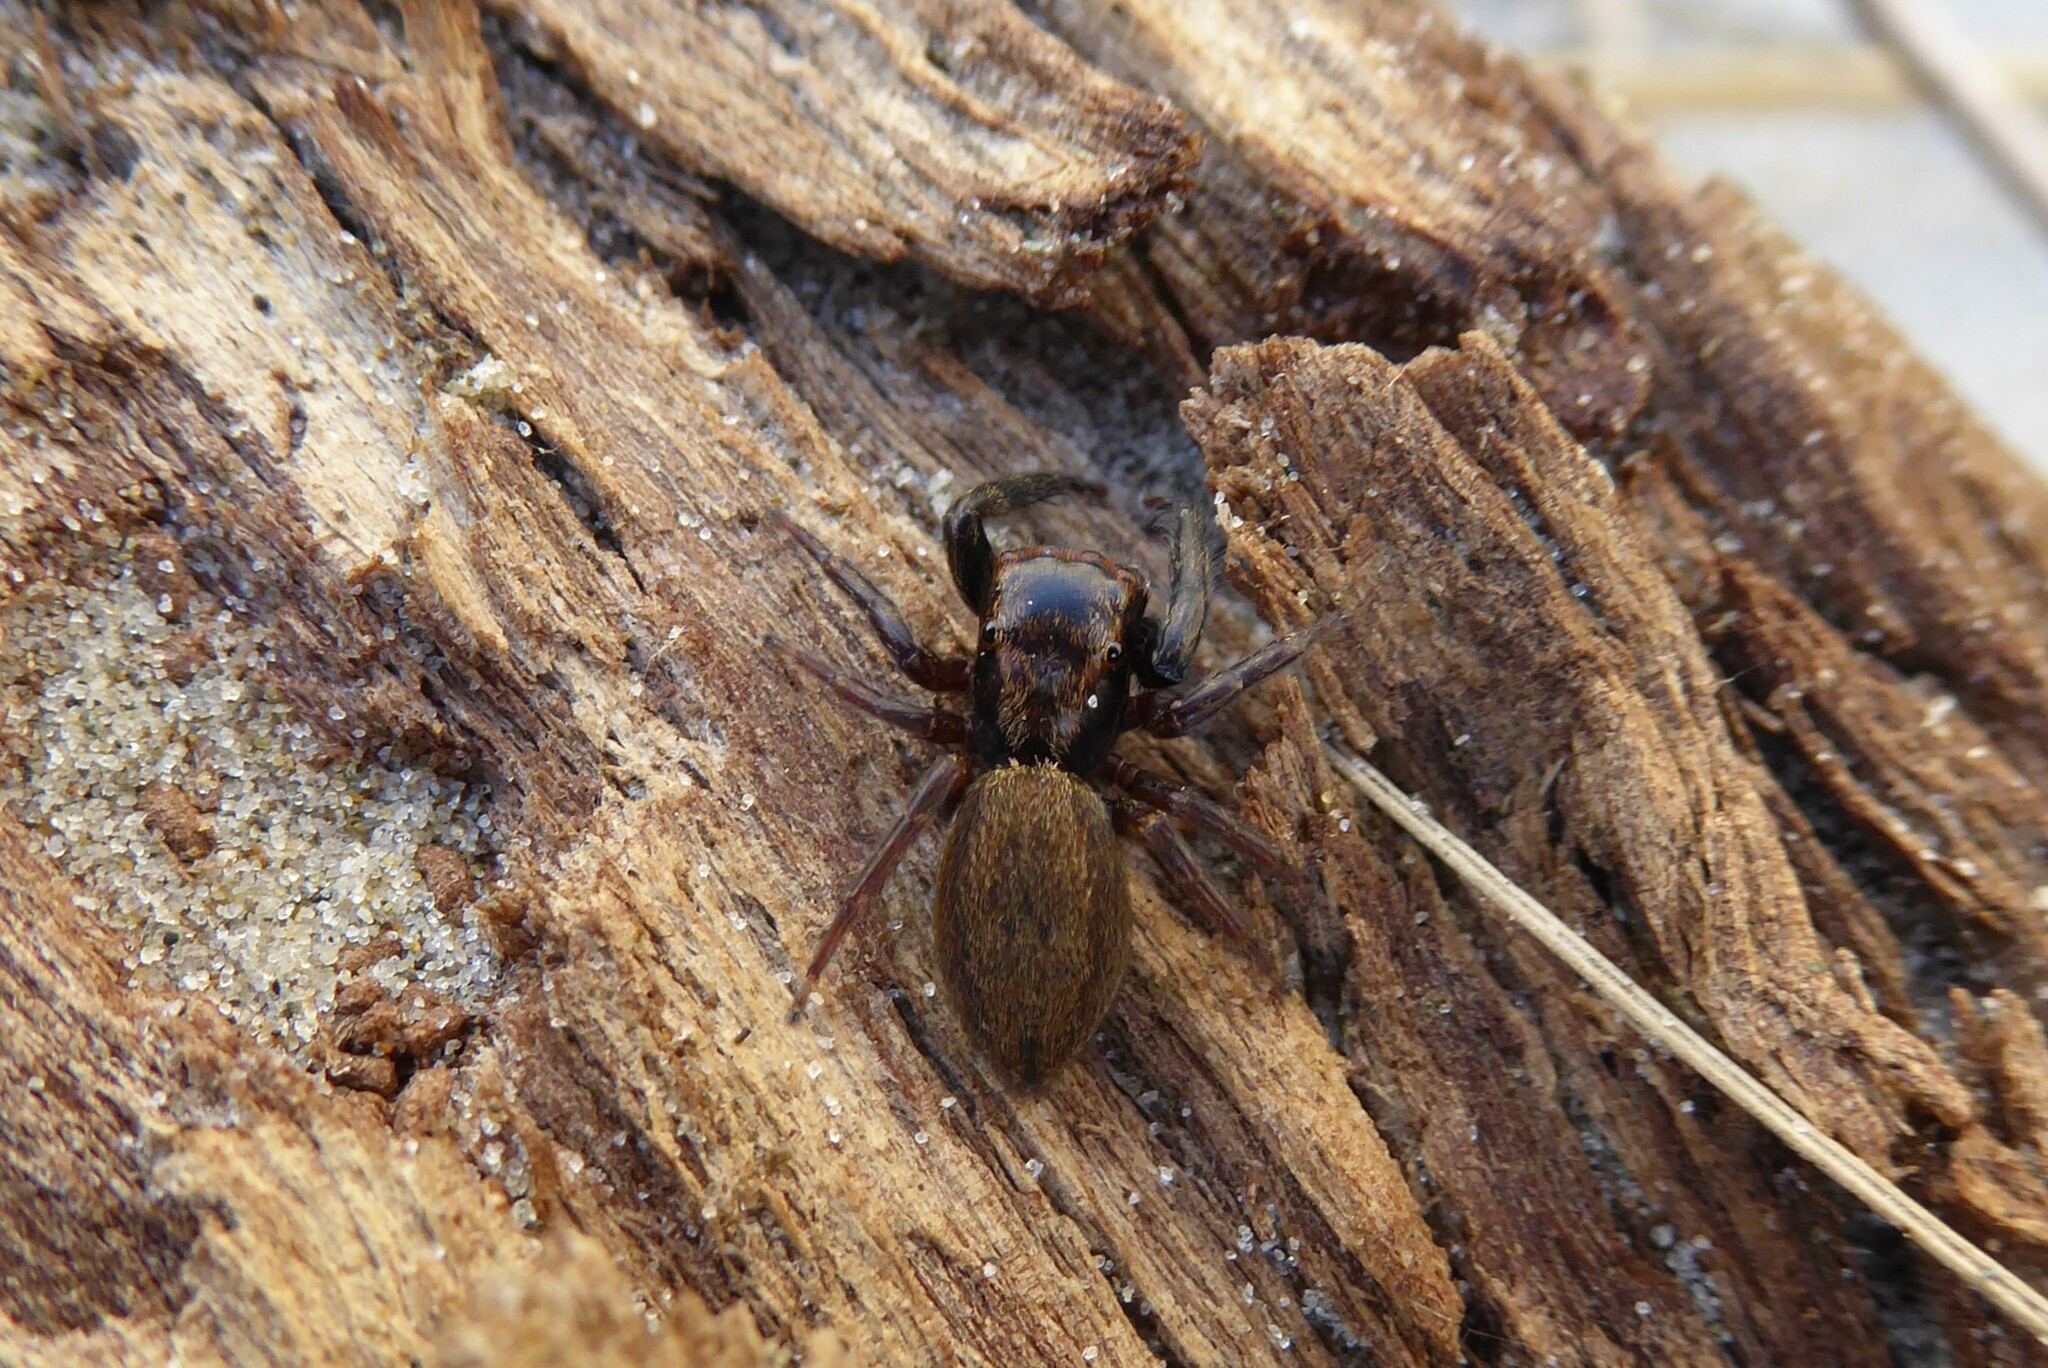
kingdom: Animalia
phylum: Arthropoda
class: Arachnida
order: Araneae
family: Salticidae
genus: Trite
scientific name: Trite auricoma
